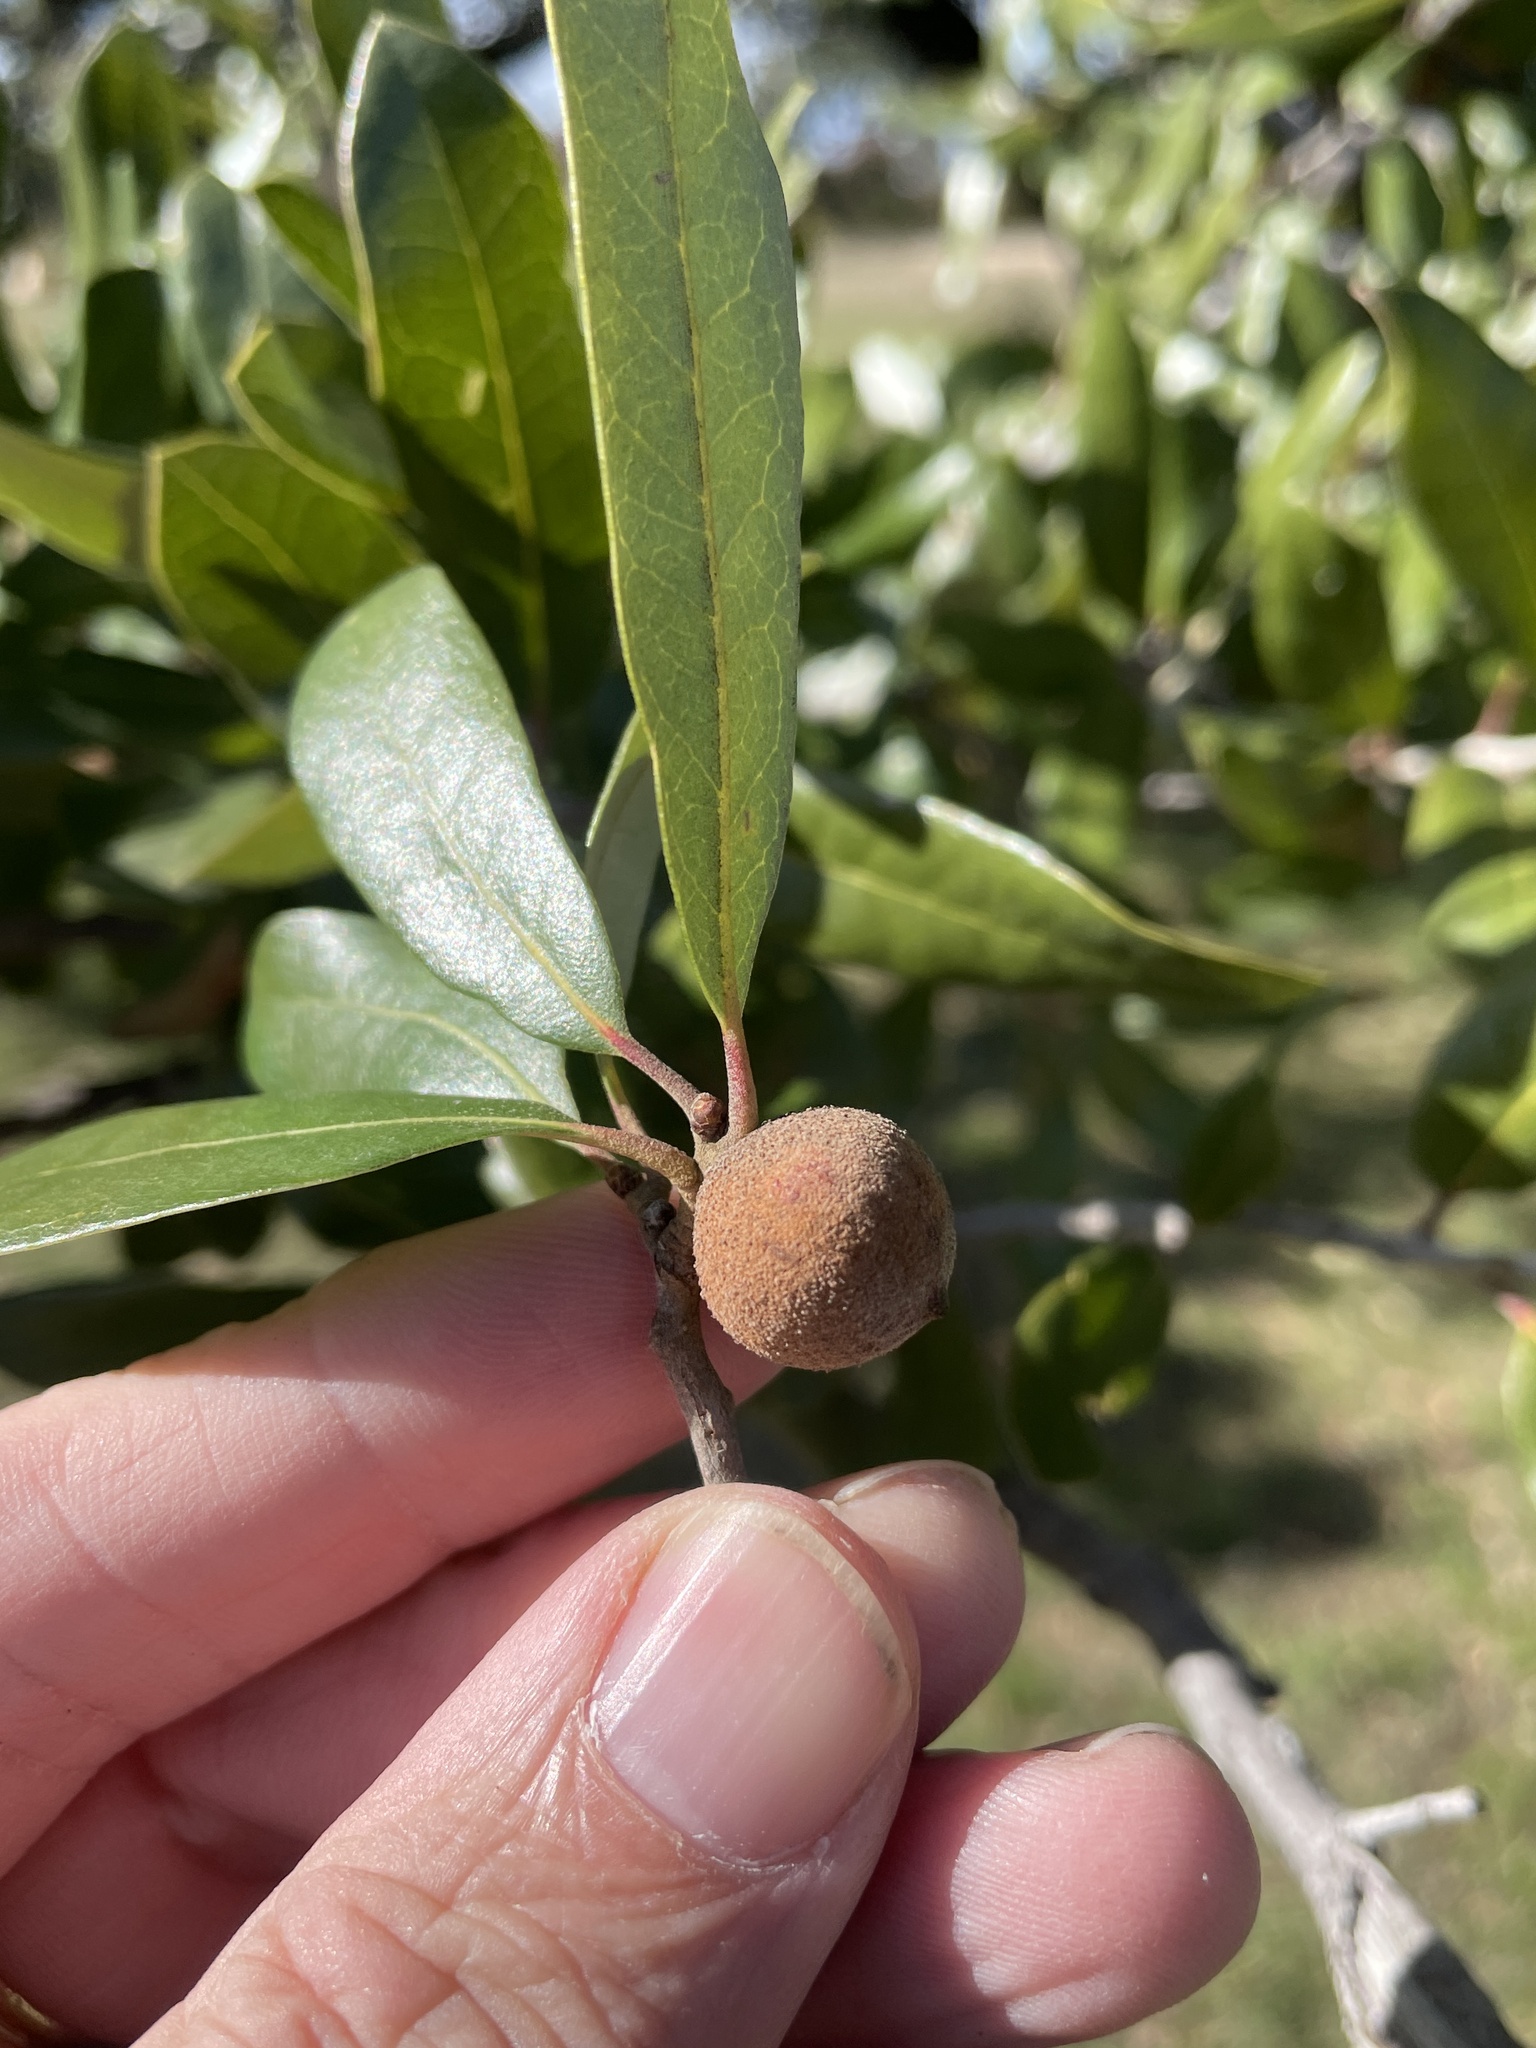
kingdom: Animalia
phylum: Arthropoda
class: Insecta
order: Hymenoptera
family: Cynipidae
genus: Disholcaspis
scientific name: Disholcaspis
